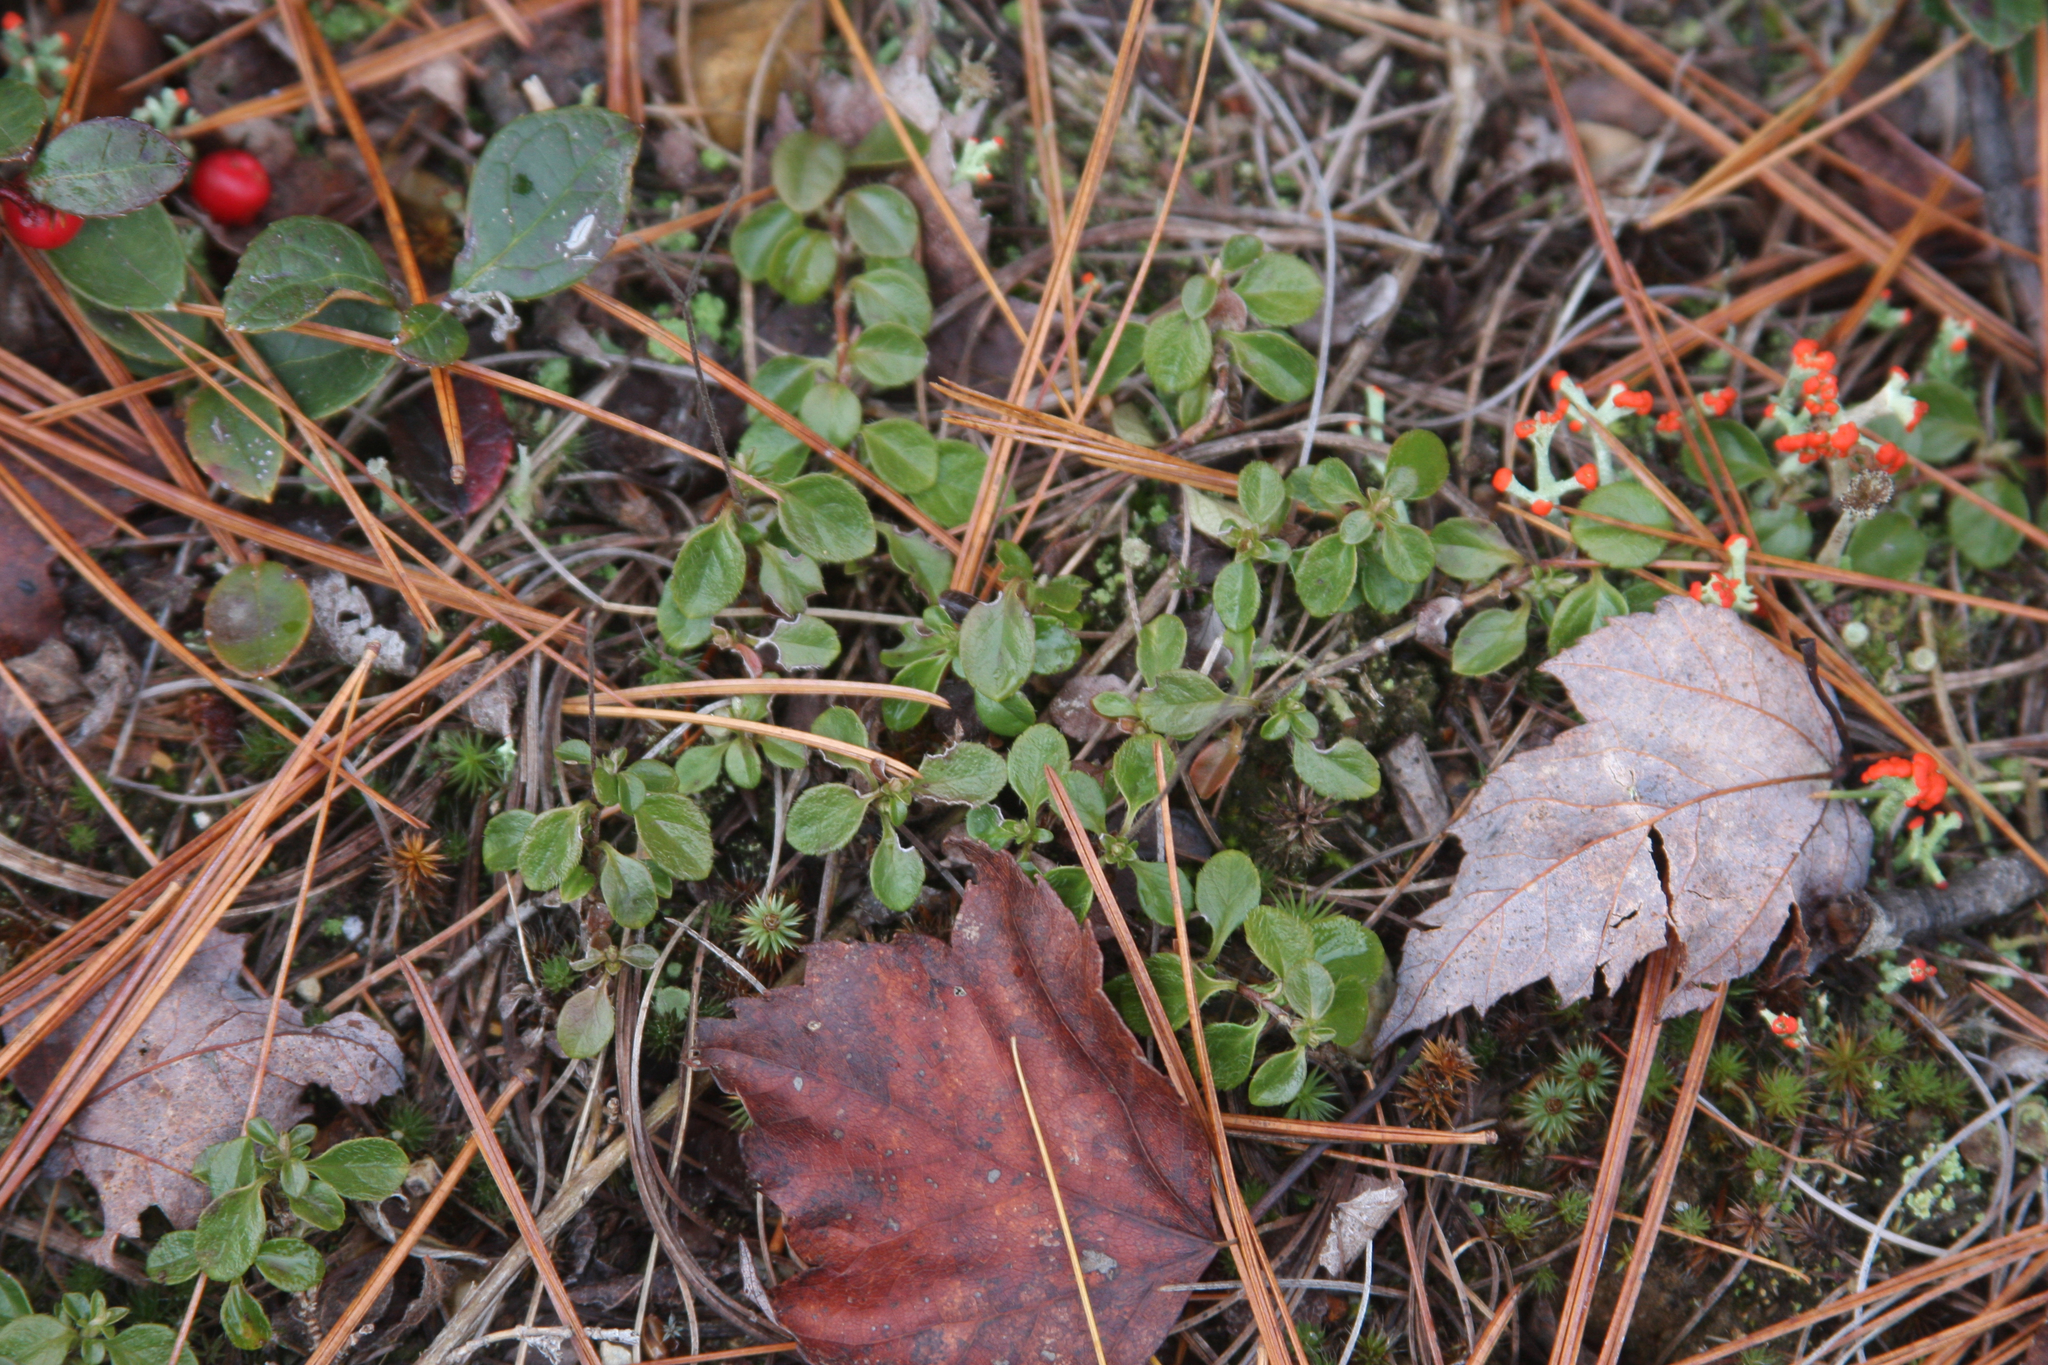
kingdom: Plantae
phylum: Tracheophyta
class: Magnoliopsida
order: Dipsacales
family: Caprifoliaceae
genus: Linnaea
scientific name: Linnaea borealis
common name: Twinflower
